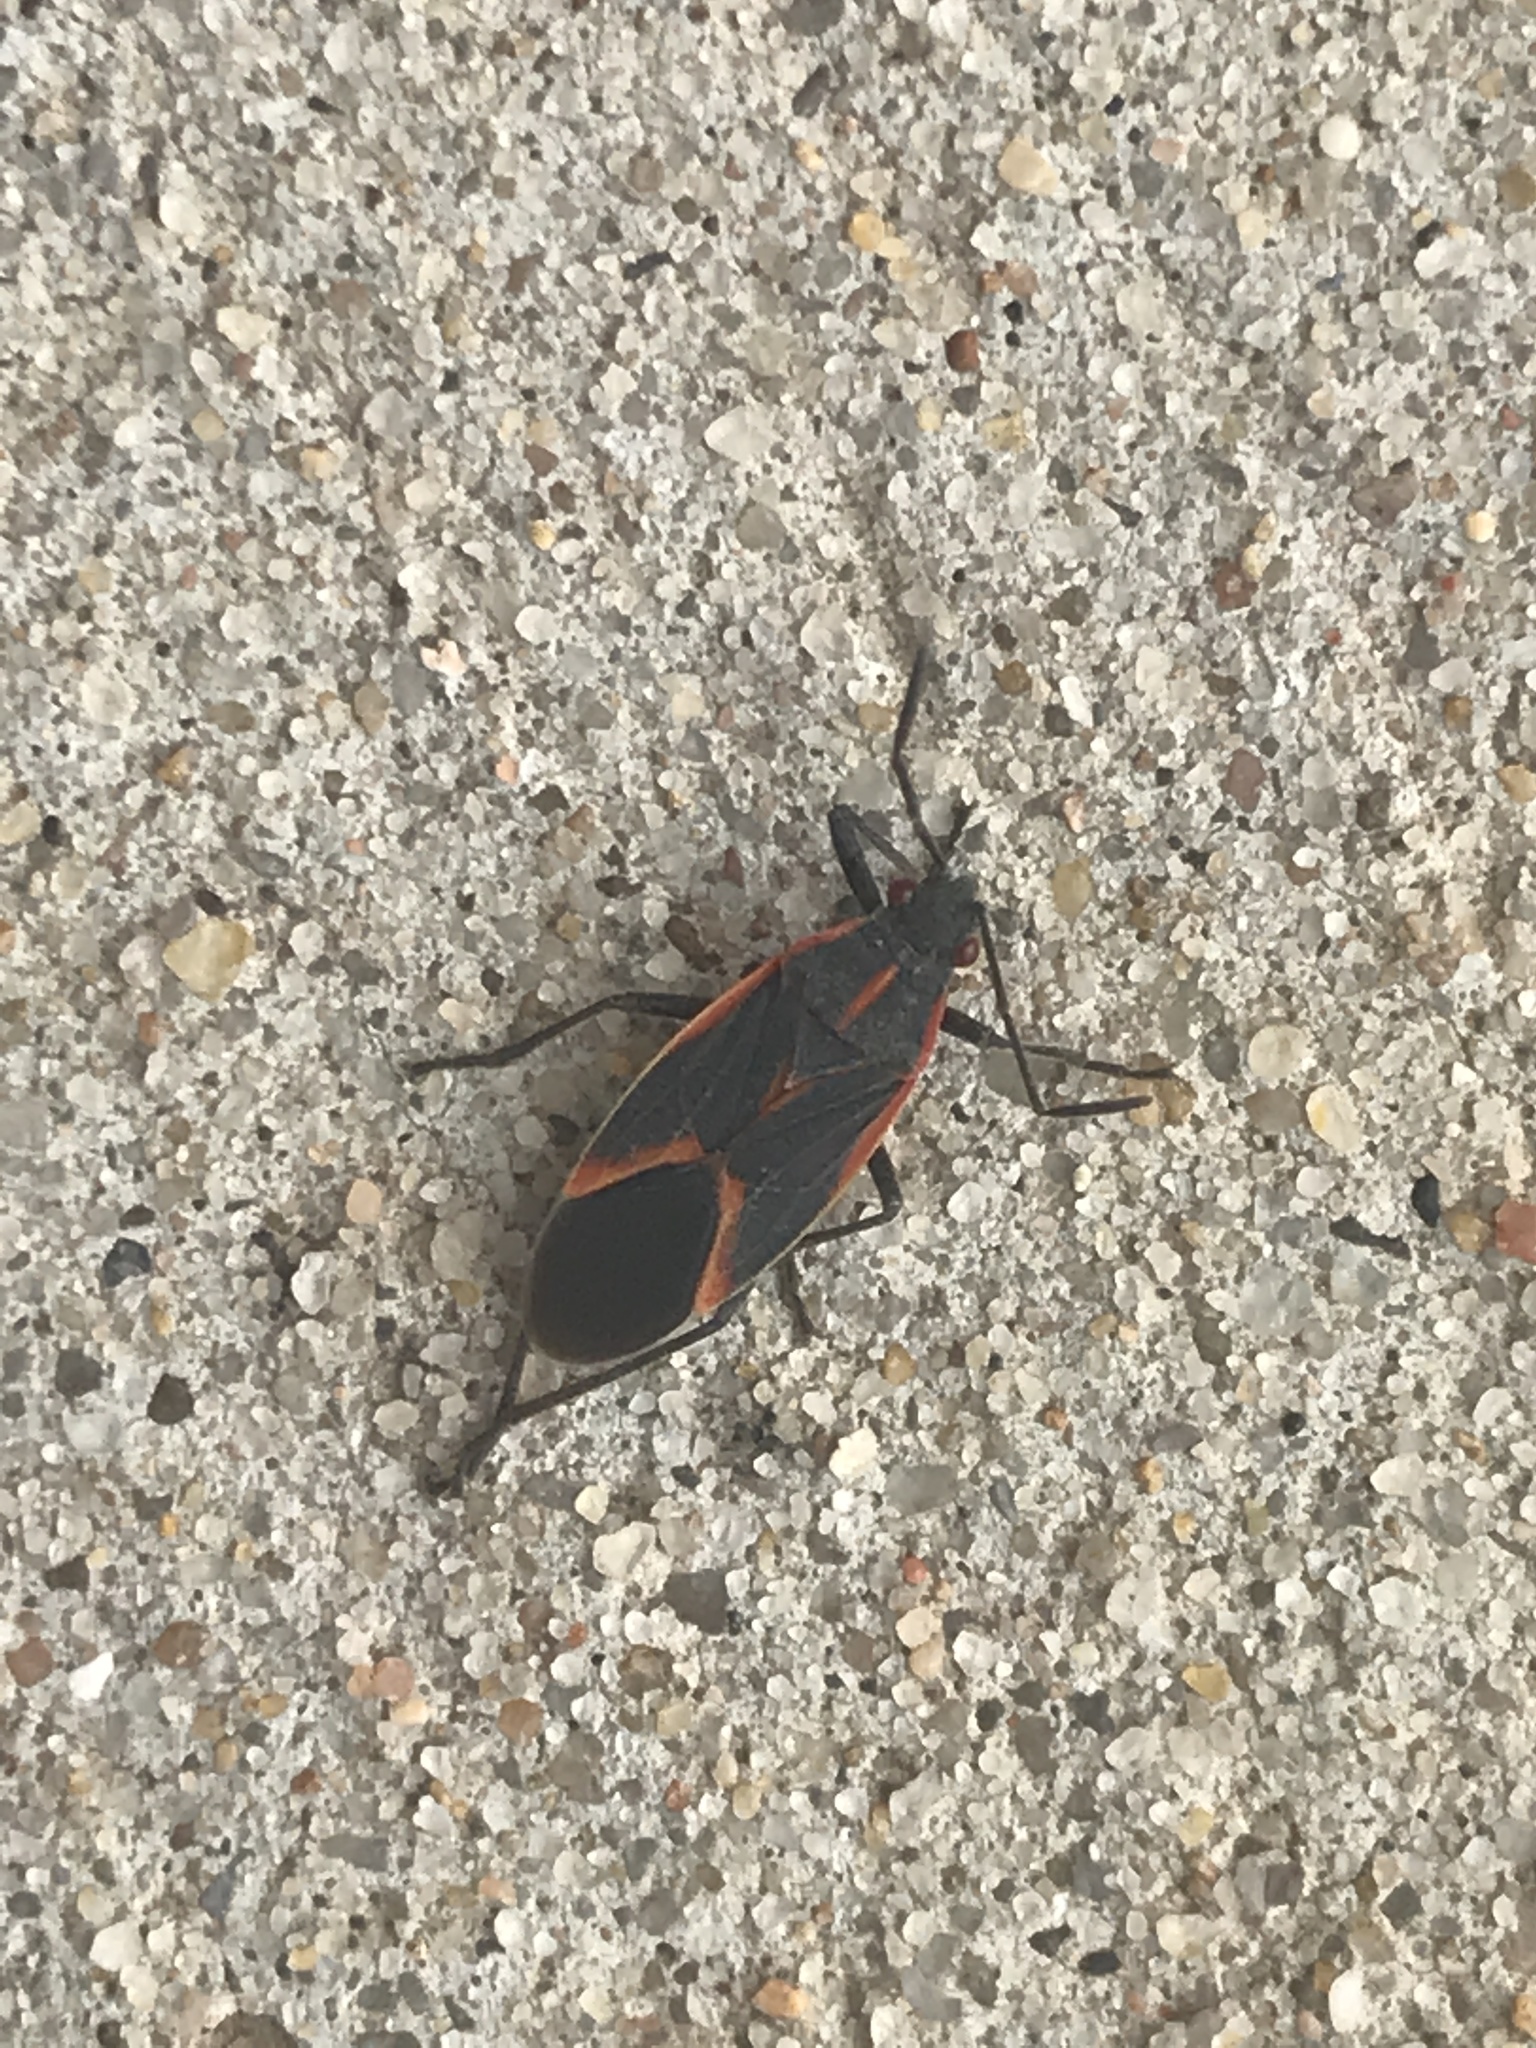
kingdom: Animalia
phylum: Arthropoda
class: Insecta
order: Hemiptera
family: Rhopalidae
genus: Boisea
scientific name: Boisea trivittata
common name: Boxelder bug
